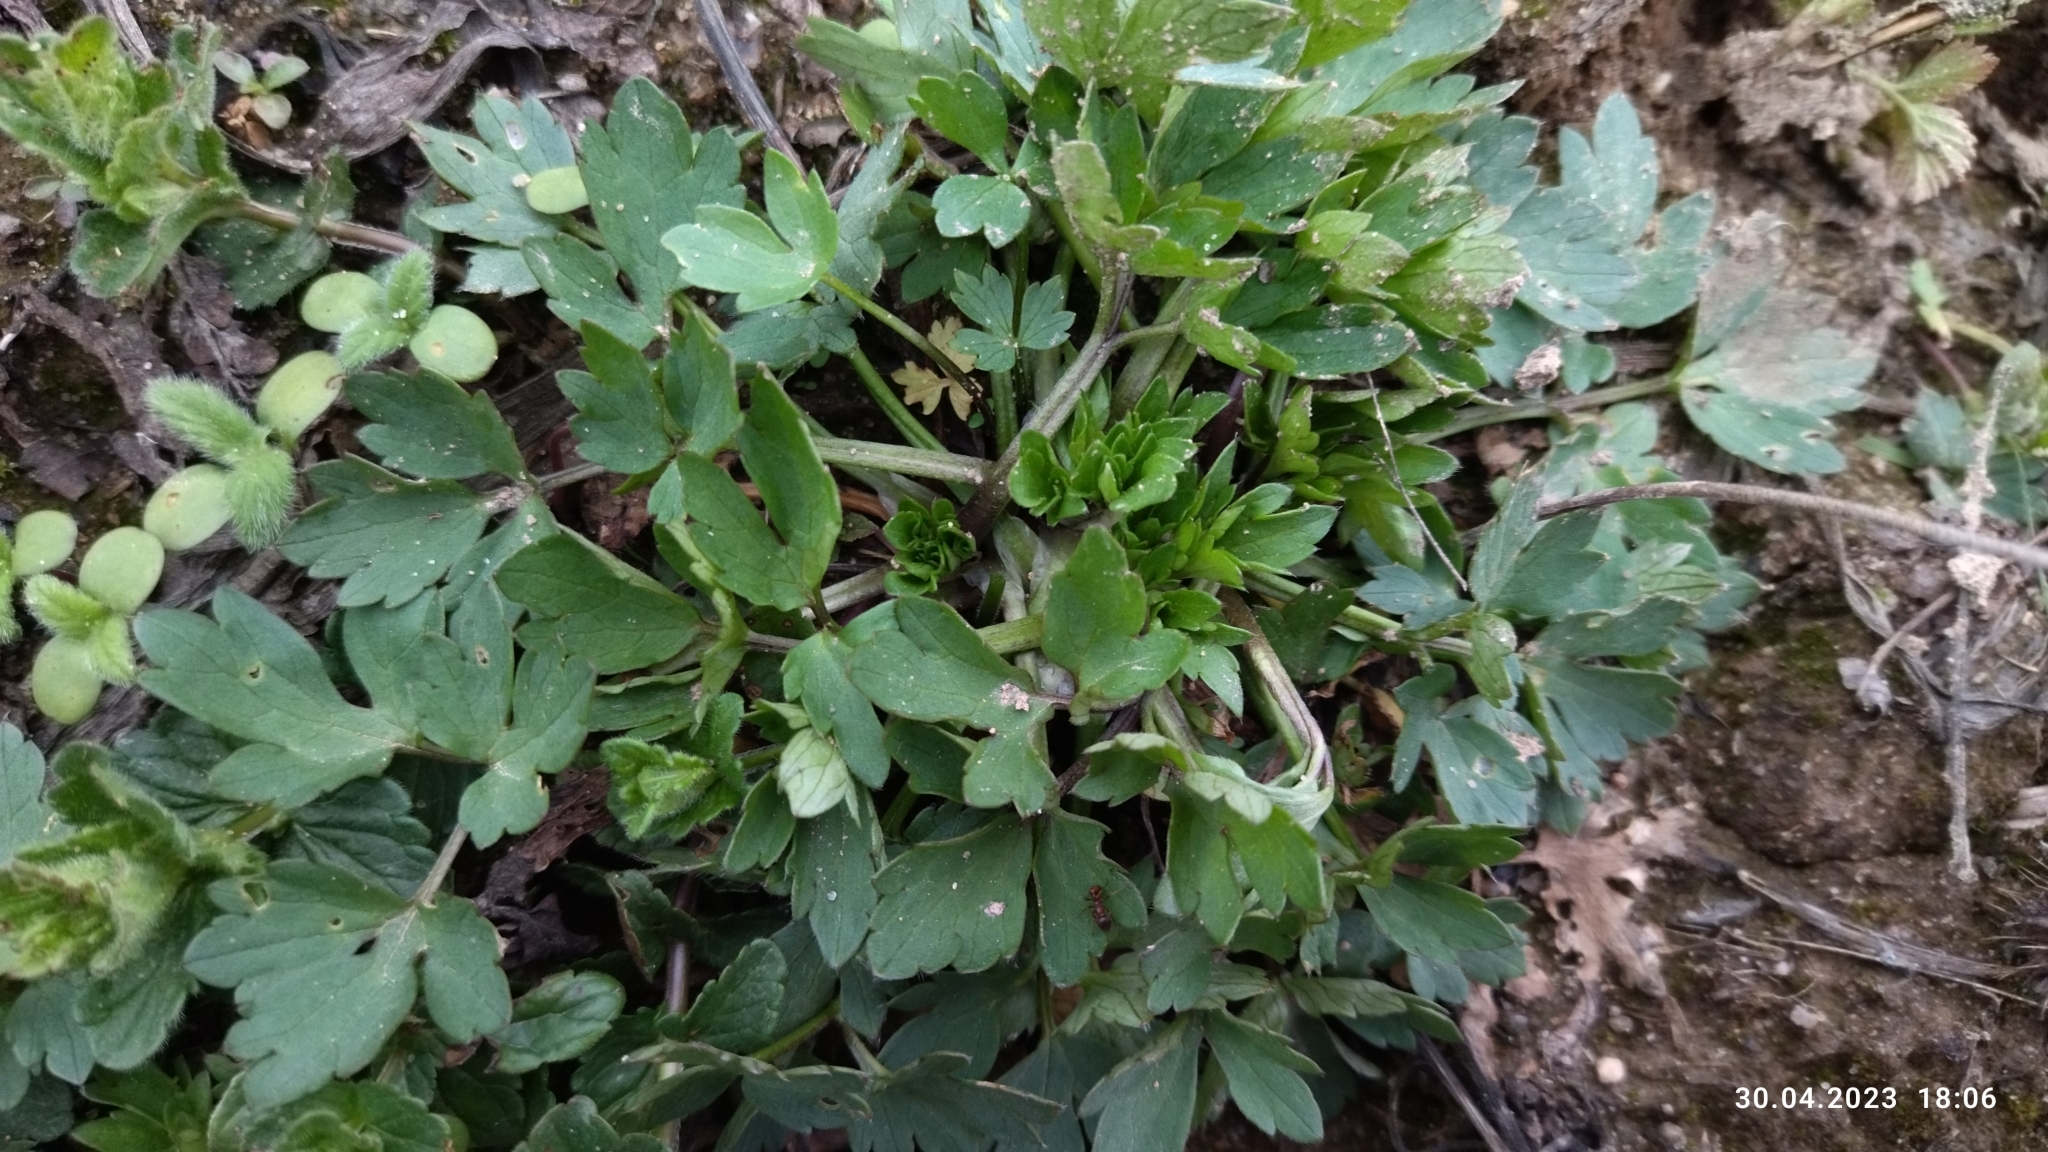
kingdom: Plantae
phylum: Tracheophyta
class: Magnoliopsida
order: Ranunculales
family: Ranunculaceae
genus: Ranunculus
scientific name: Ranunculus repens
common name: Creeping buttercup
